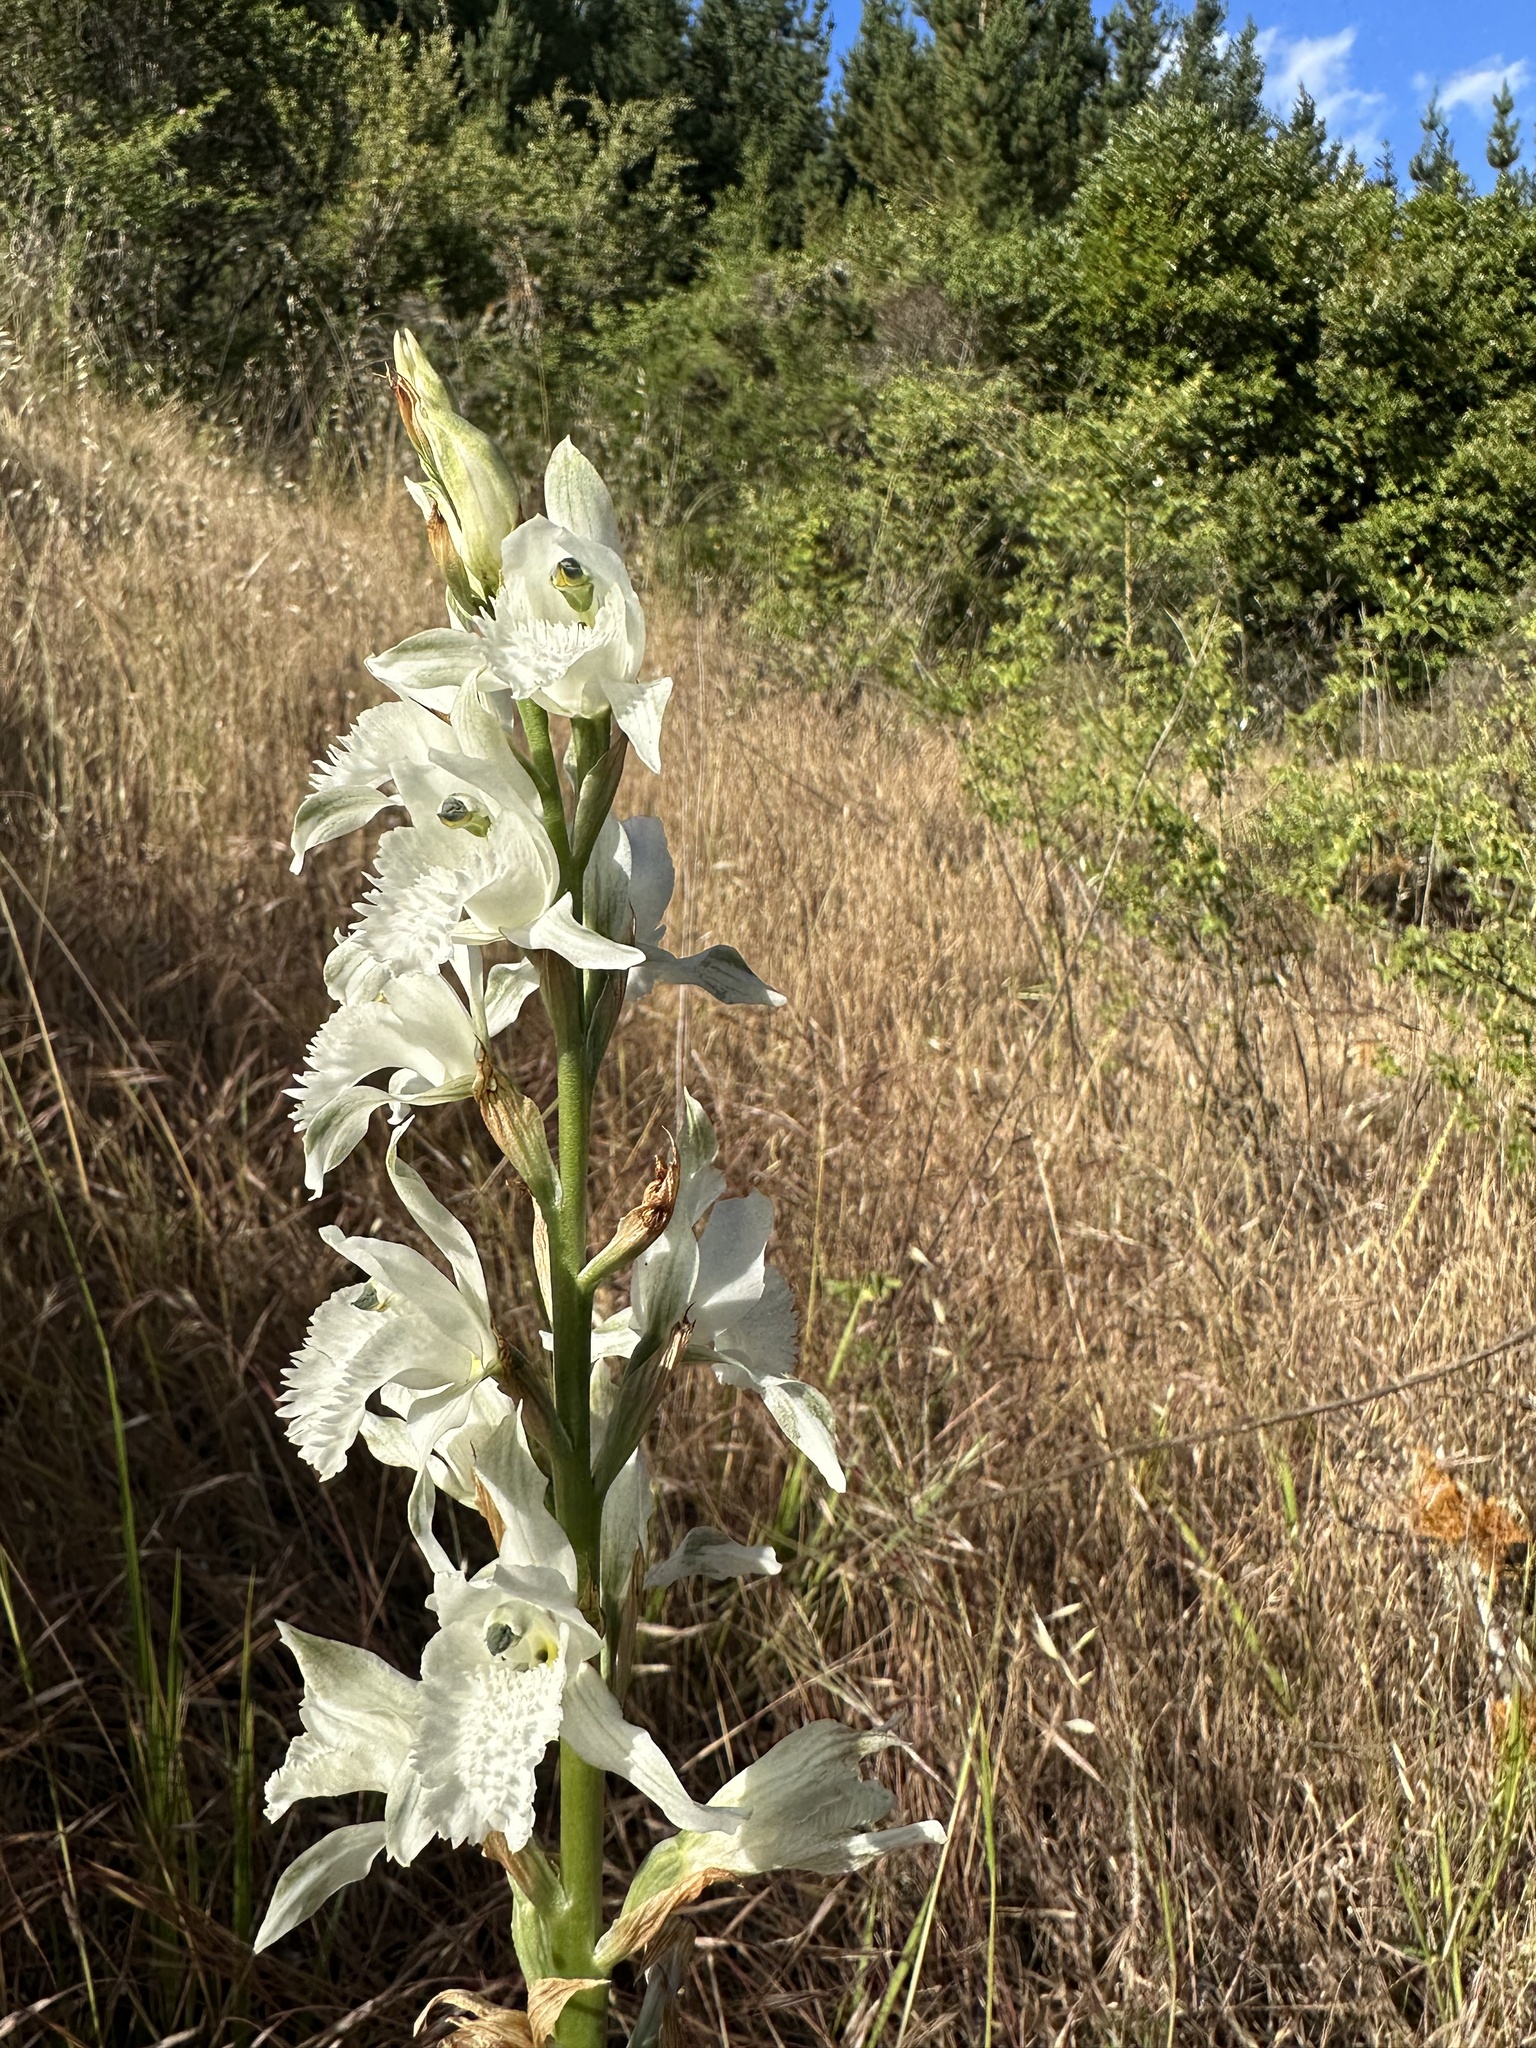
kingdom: Plantae
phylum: Tracheophyta
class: Liliopsida
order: Asparagales
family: Orchidaceae
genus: Chloraea
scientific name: Chloraea crispa
